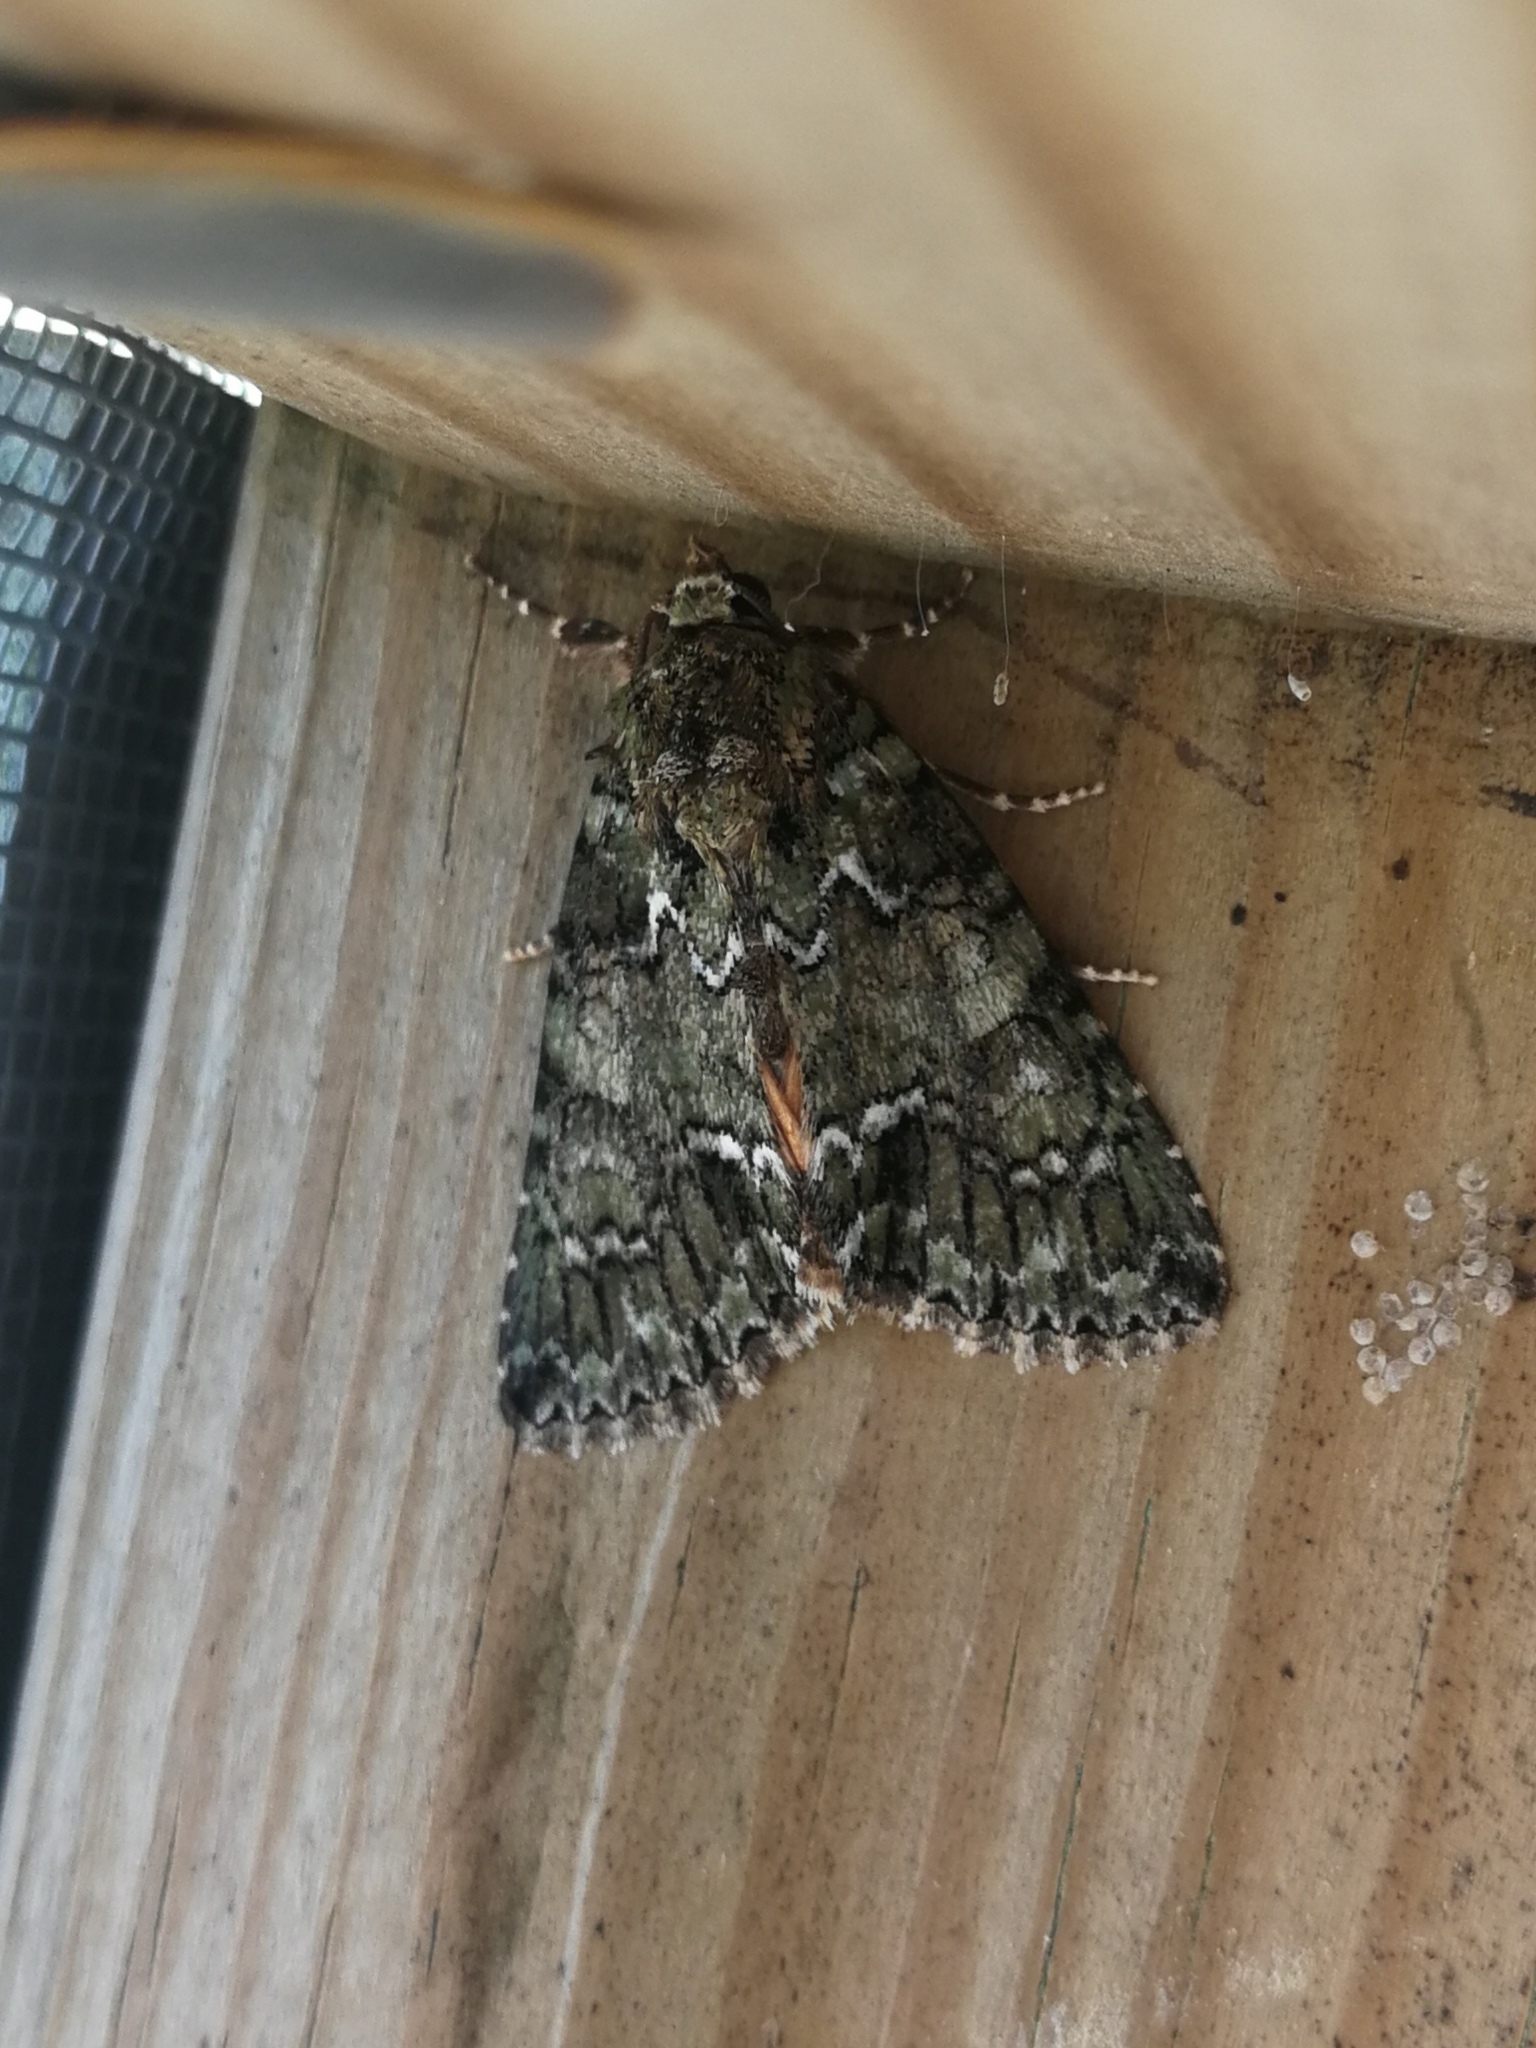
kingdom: Animalia
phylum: Arthropoda
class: Insecta
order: Lepidoptera
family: Noctuidae
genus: Polyphaenis
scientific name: Polyphaenis sericata
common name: Guernsey underwing
